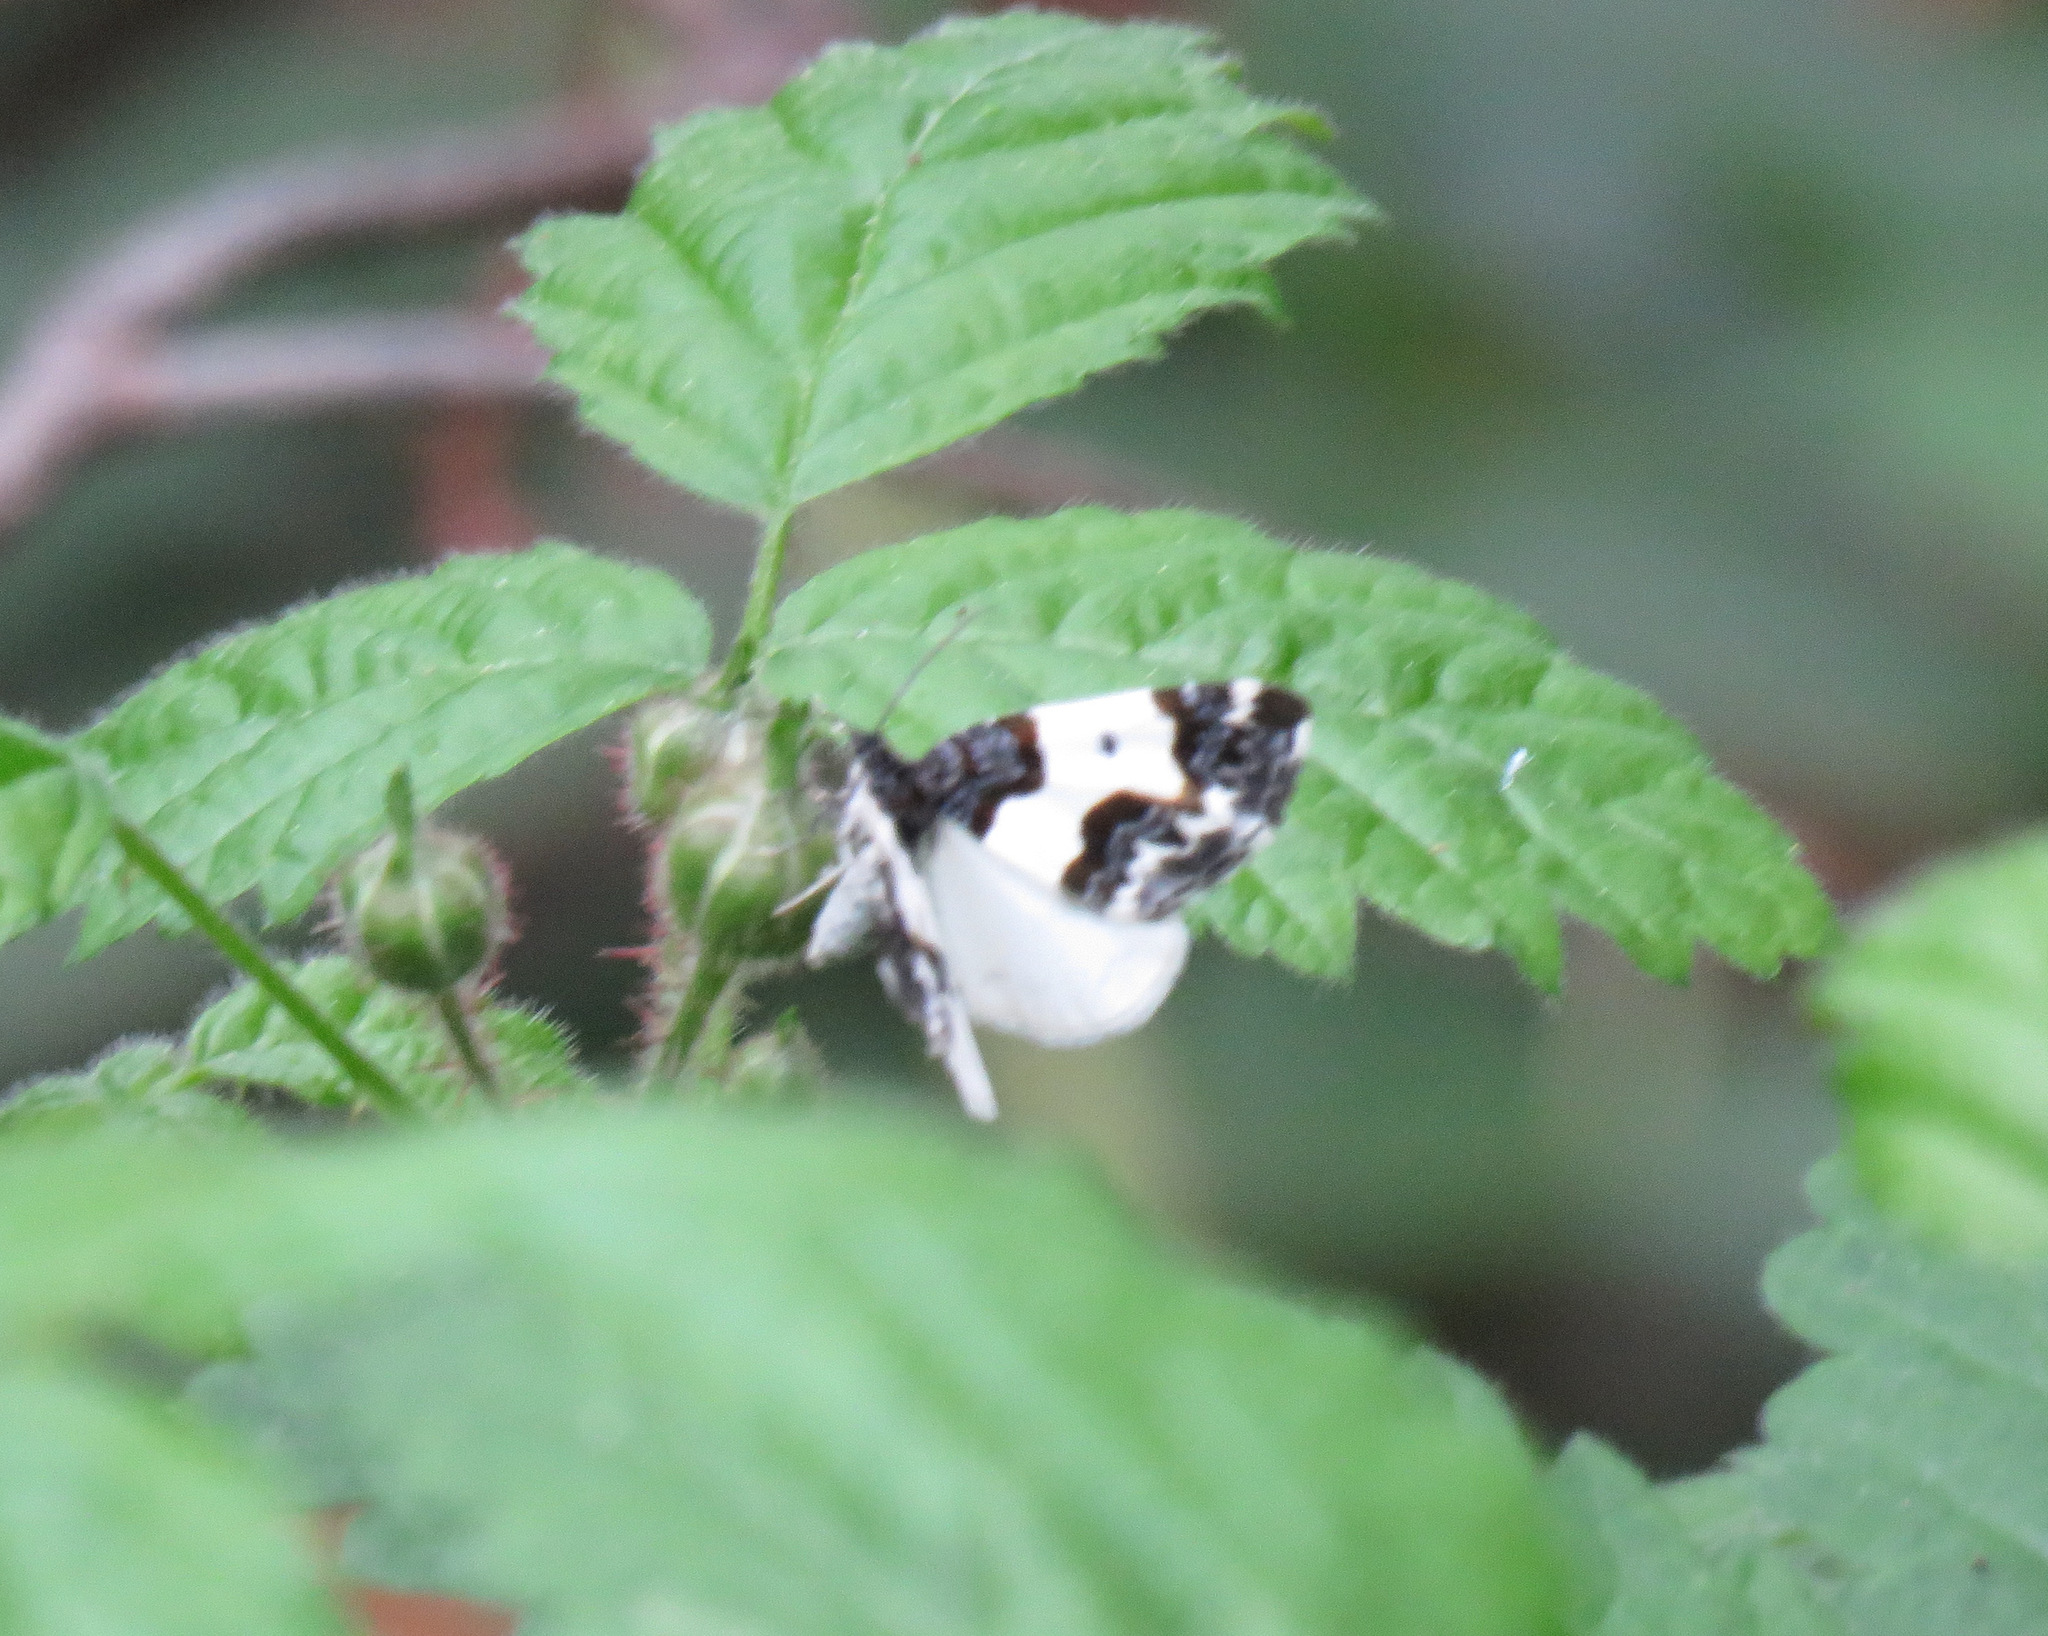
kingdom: Animalia
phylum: Arthropoda
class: Insecta
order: Lepidoptera
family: Geometridae
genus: Mesoleuca
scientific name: Mesoleuca gratulata
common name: Half-white carpet moth
